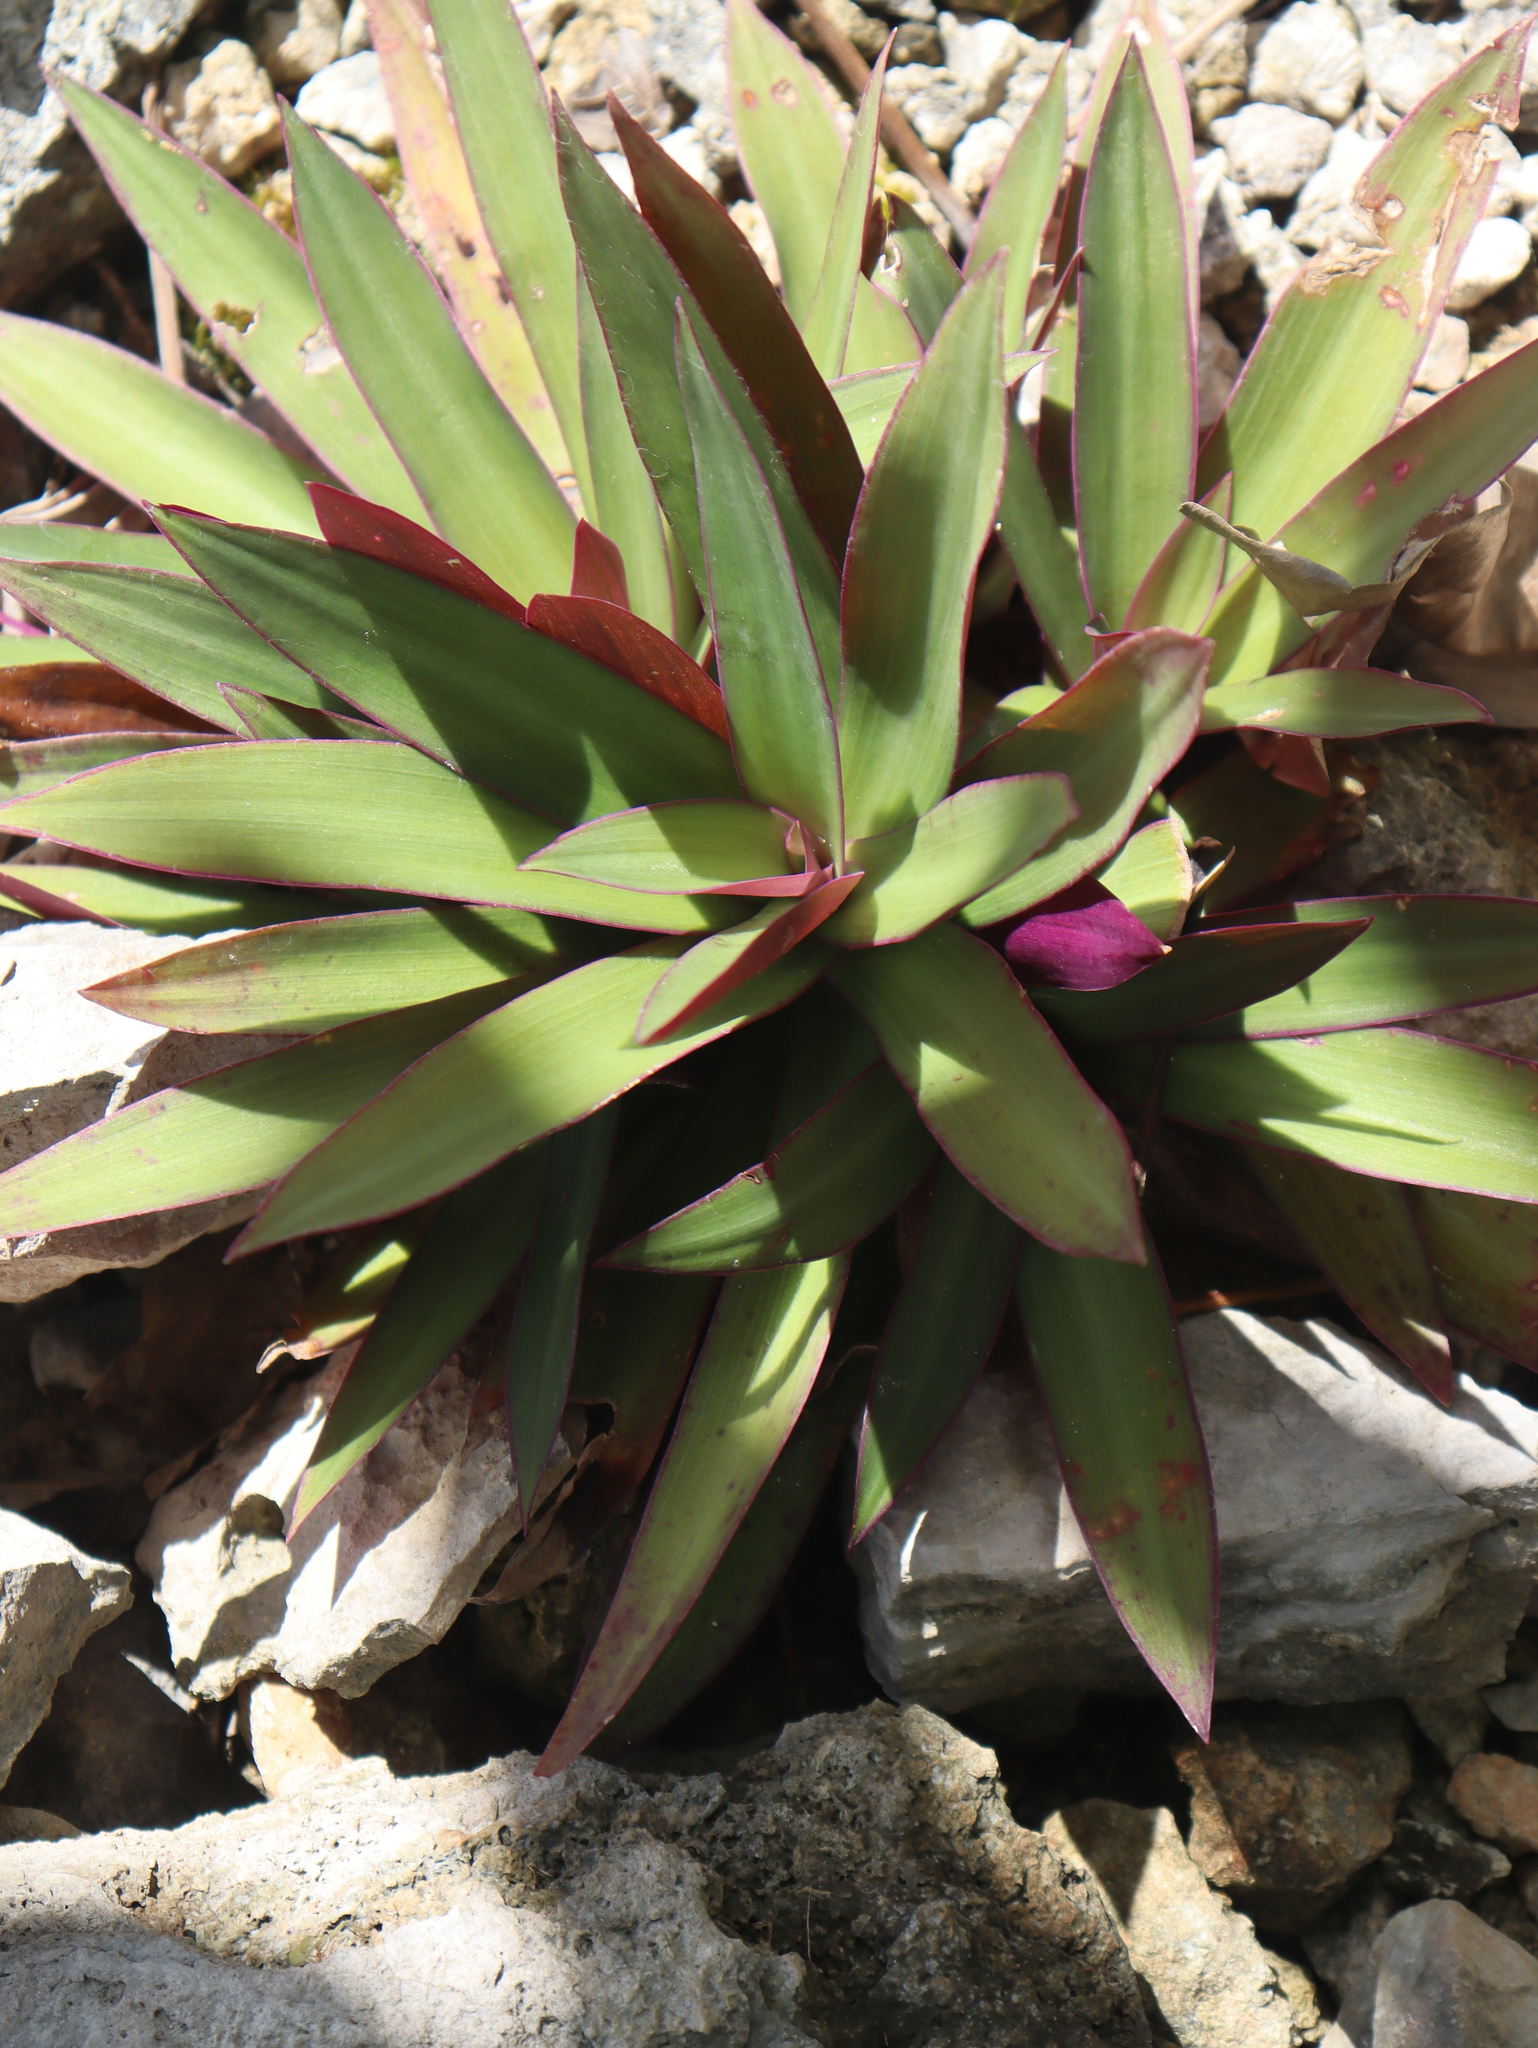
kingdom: Plantae
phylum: Tracheophyta
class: Liliopsida
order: Commelinales
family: Commelinaceae
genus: Tradescantia
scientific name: Tradescantia spathacea
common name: Boatlily
